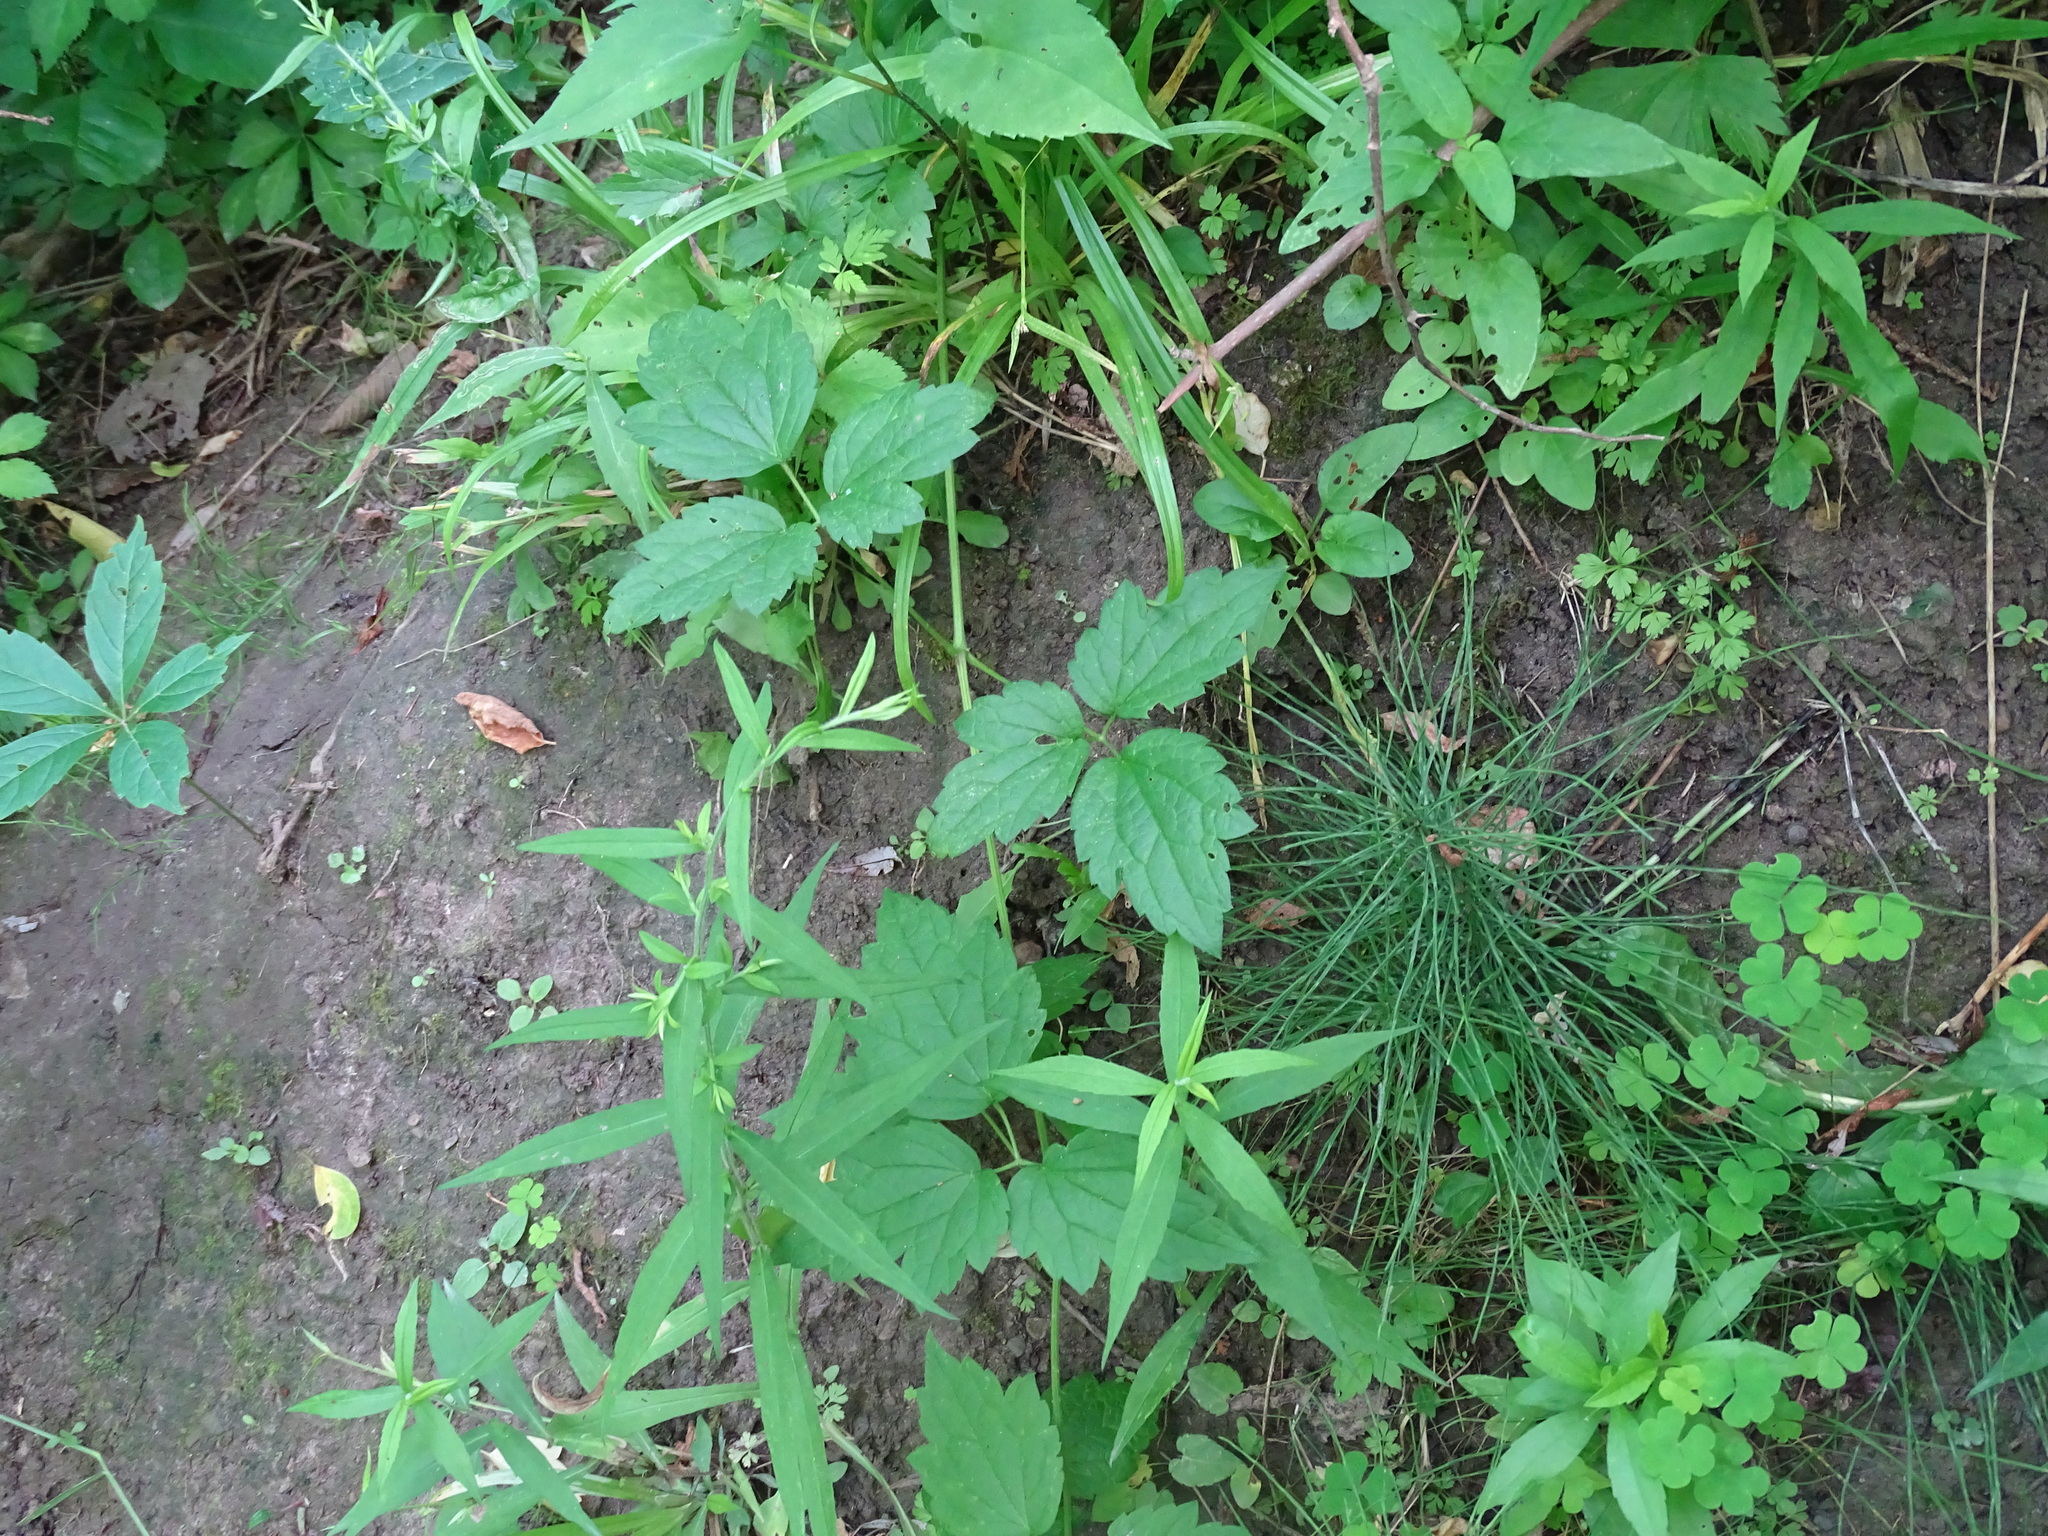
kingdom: Plantae
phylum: Tracheophyta
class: Magnoliopsida
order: Ranunculales
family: Ranunculaceae
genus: Clematis
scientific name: Clematis virginiana
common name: Virgin's-bower
